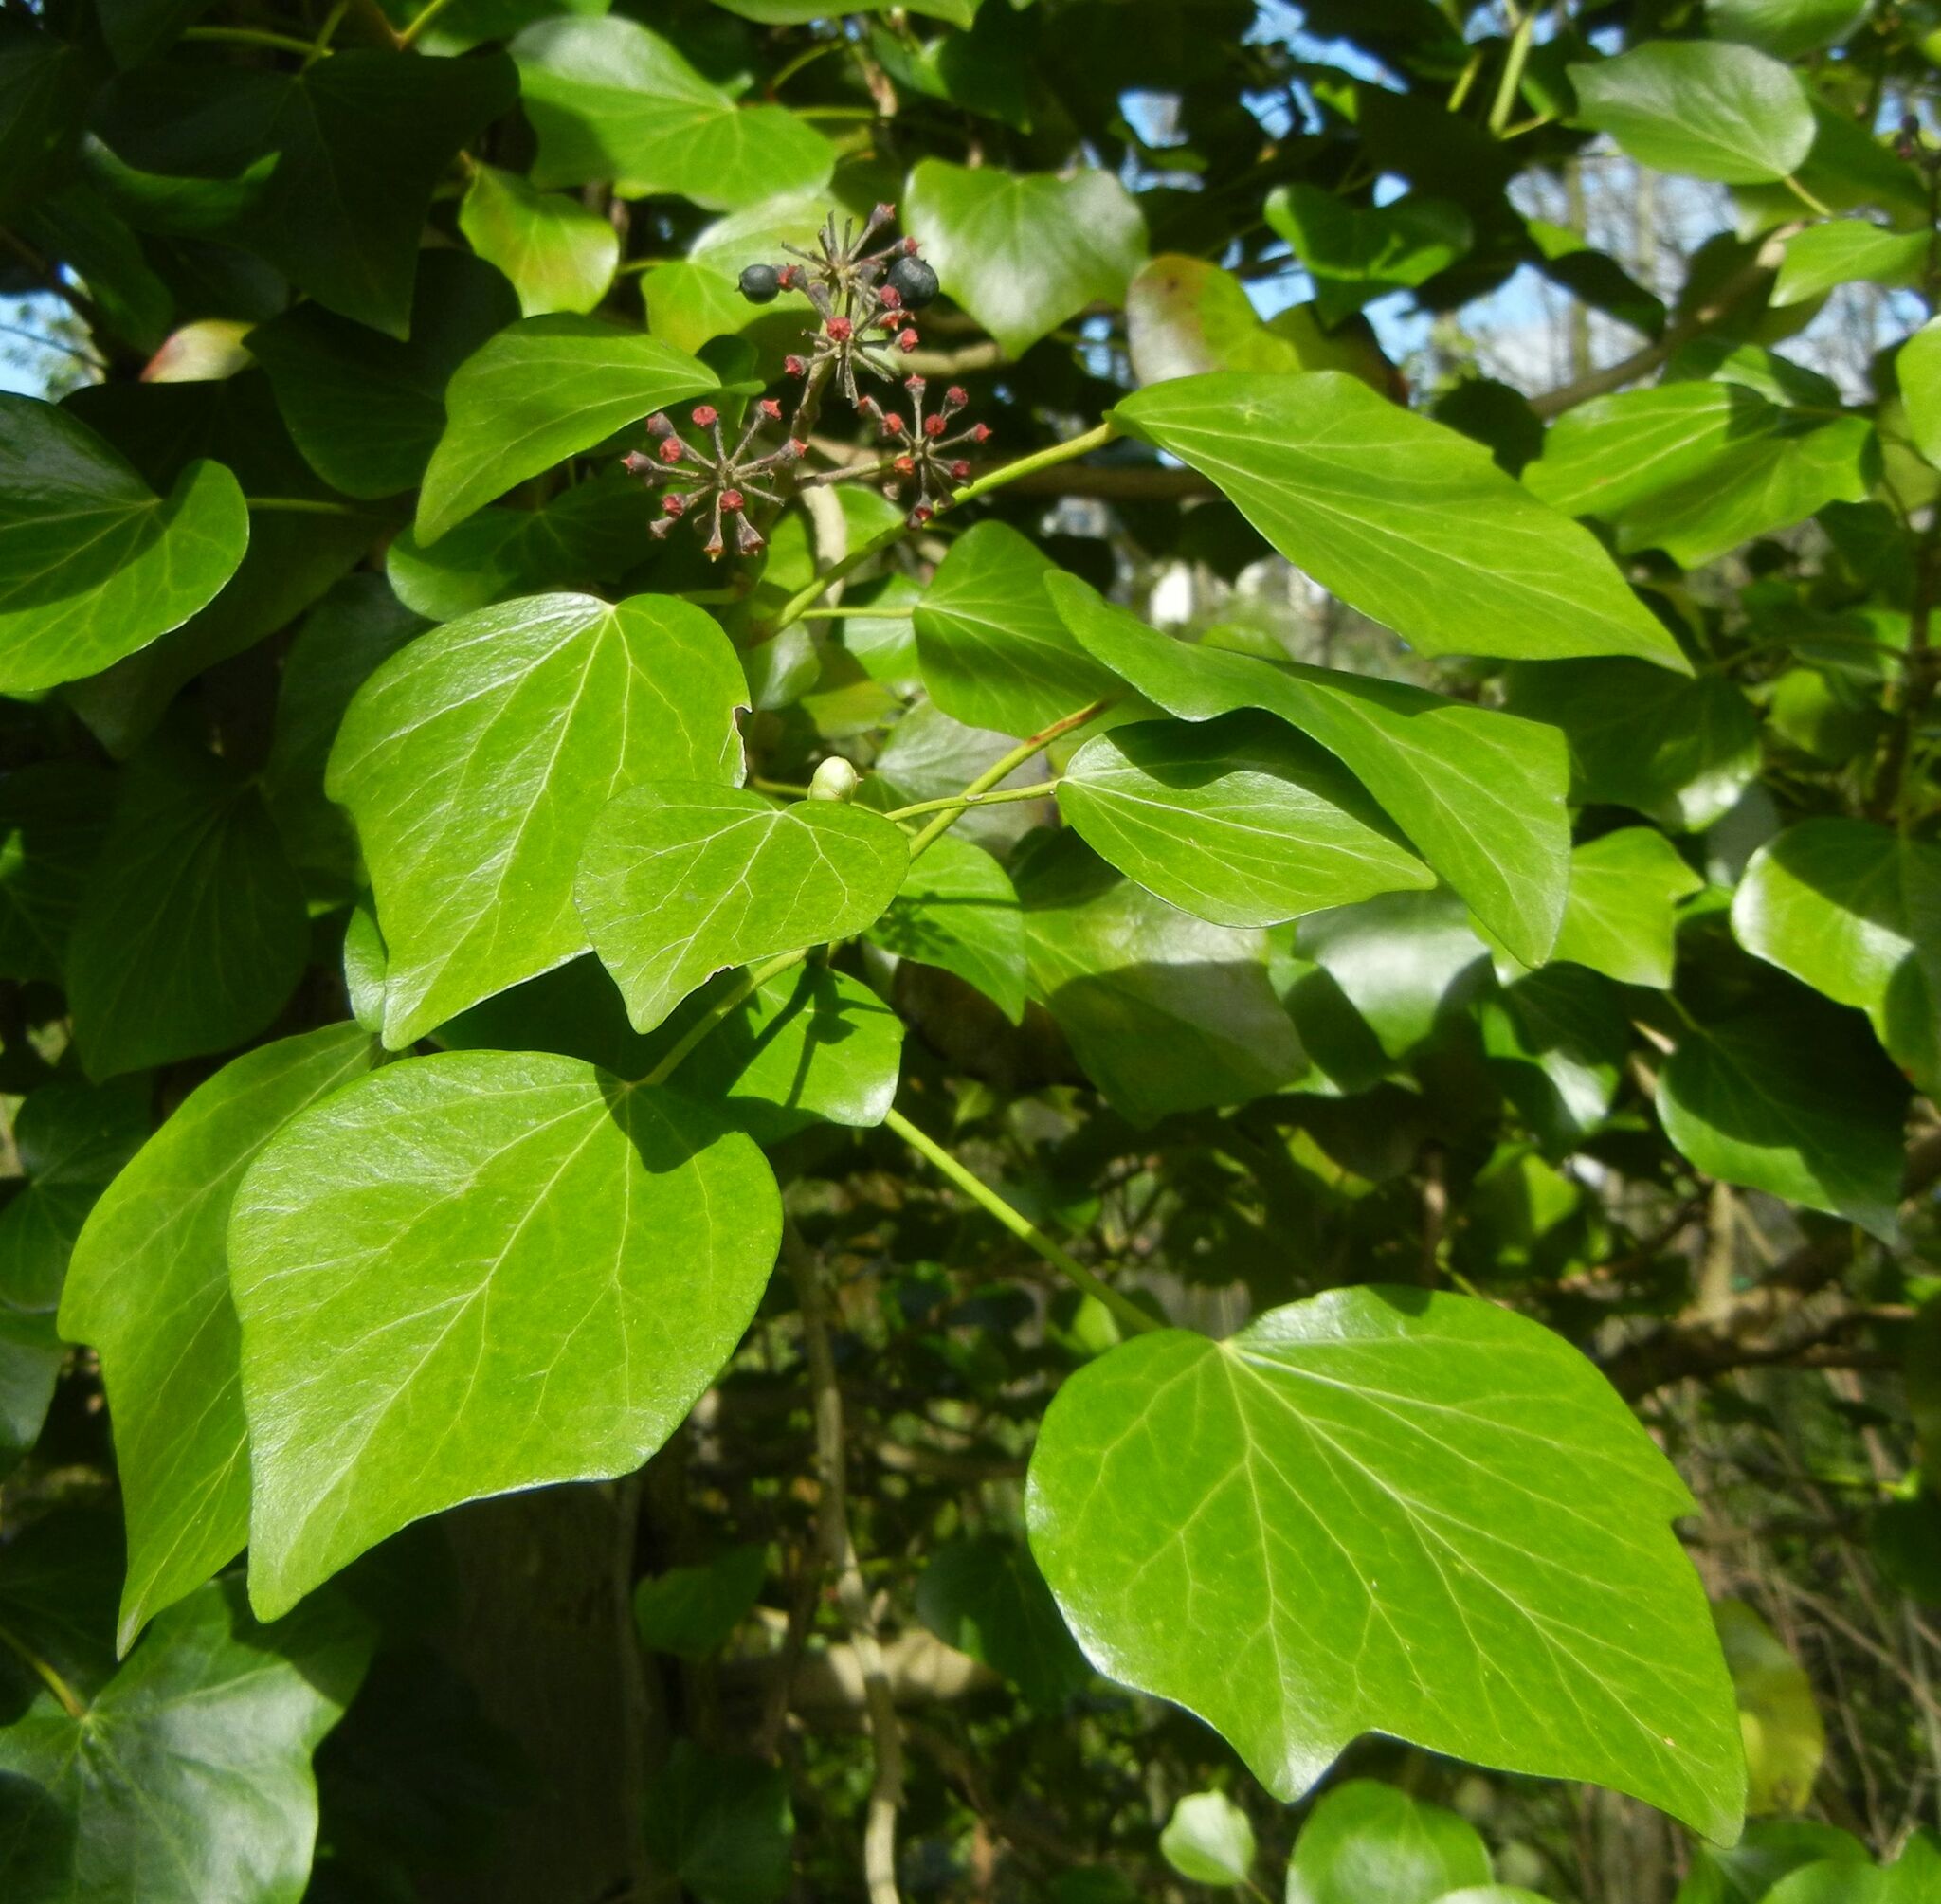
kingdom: Plantae
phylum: Tracheophyta
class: Magnoliopsida
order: Apiales
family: Araliaceae
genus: Hedera
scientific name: Hedera helix
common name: Ivy
